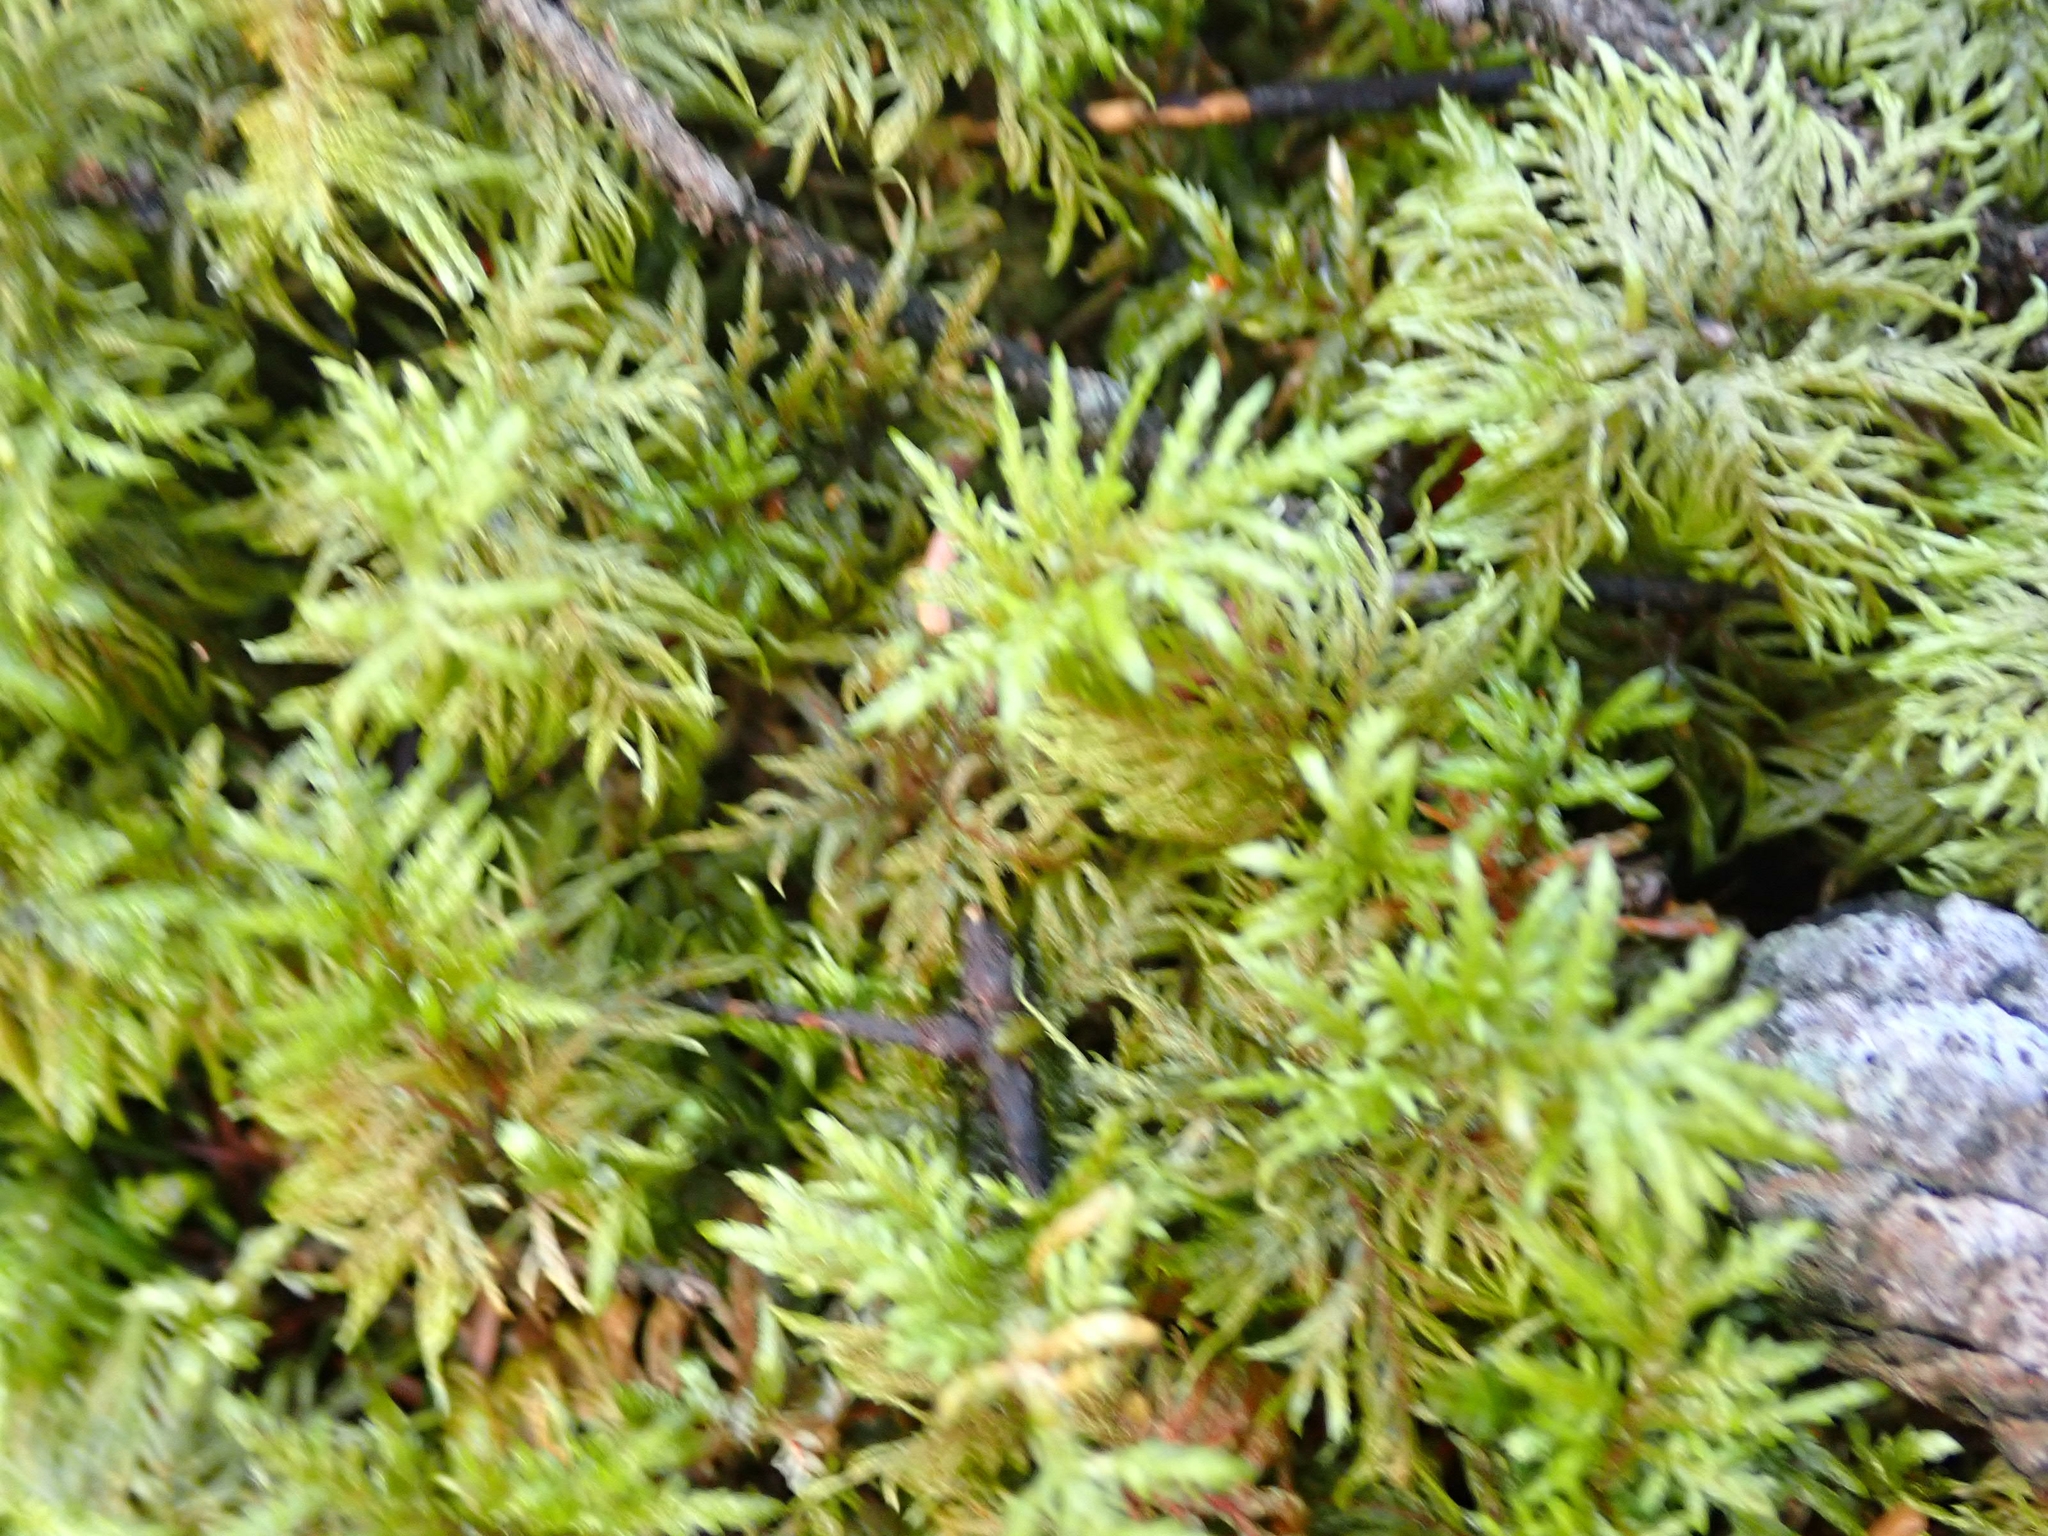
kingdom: Plantae
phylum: Bryophyta
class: Bryopsida
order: Hypnales
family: Hylocomiaceae
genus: Hylocomium
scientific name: Hylocomium splendens
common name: Stairstep moss
